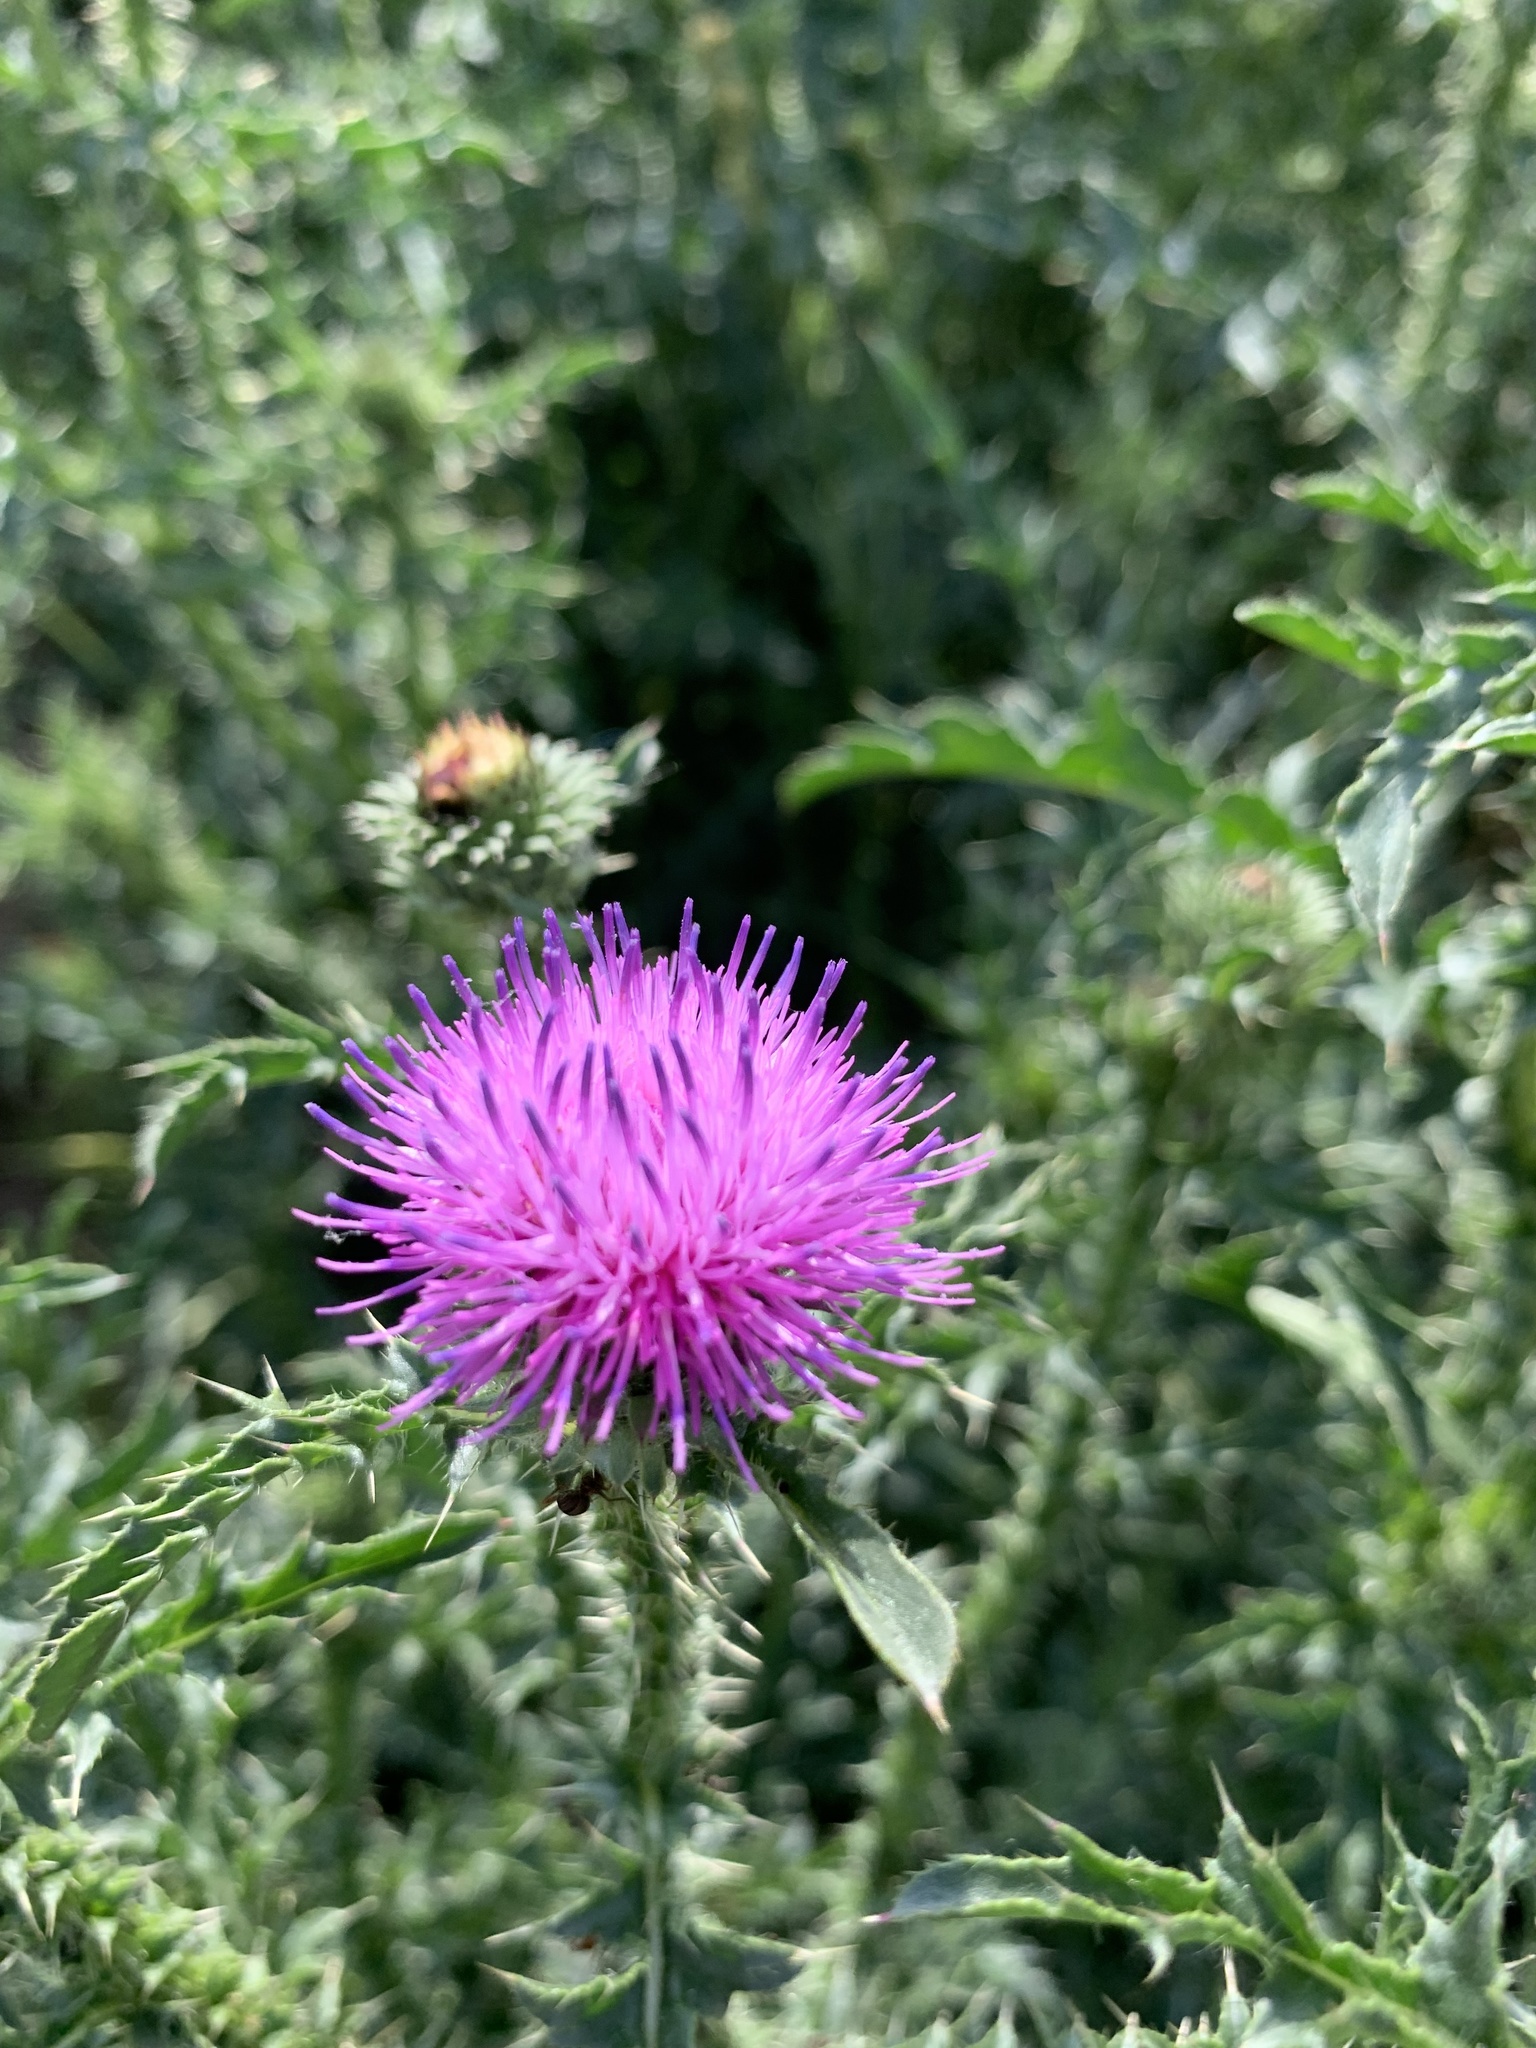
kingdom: Plantae
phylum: Tracheophyta
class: Magnoliopsida
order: Asterales
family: Asteraceae
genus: Carduus
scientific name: Carduus acanthoides
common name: Plumeless thistle
